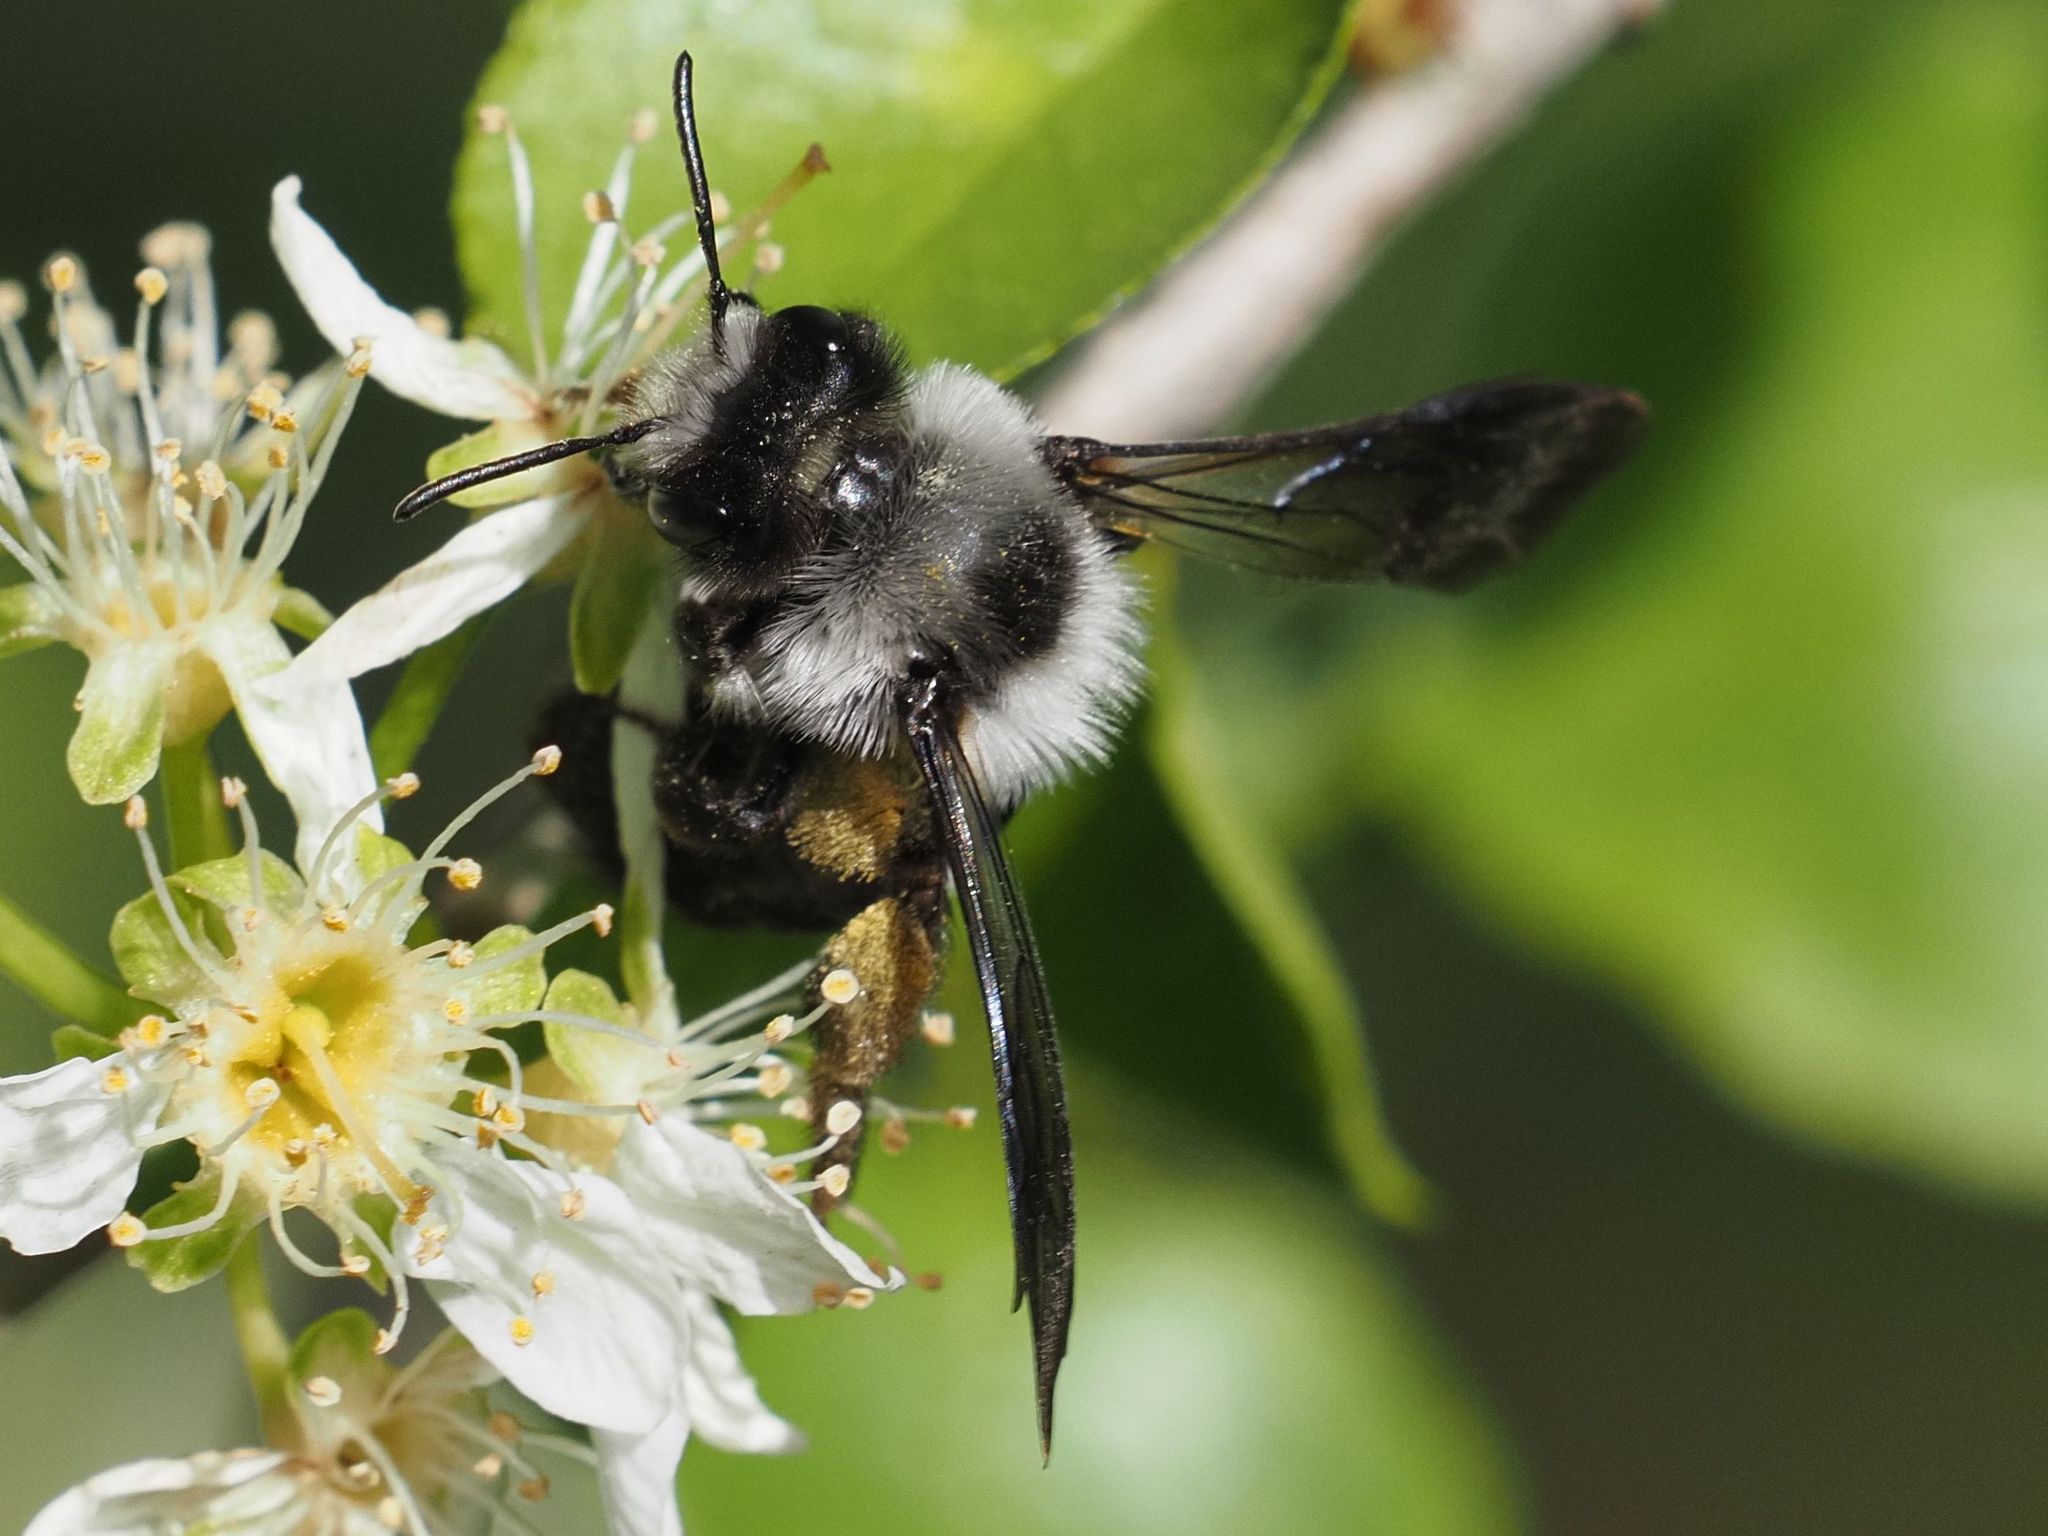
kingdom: Animalia
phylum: Arthropoda
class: Insecta
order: Hymenoptera
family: Andrenidae
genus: Andrena
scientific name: Andrena cineraria
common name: Ashy mining bee
